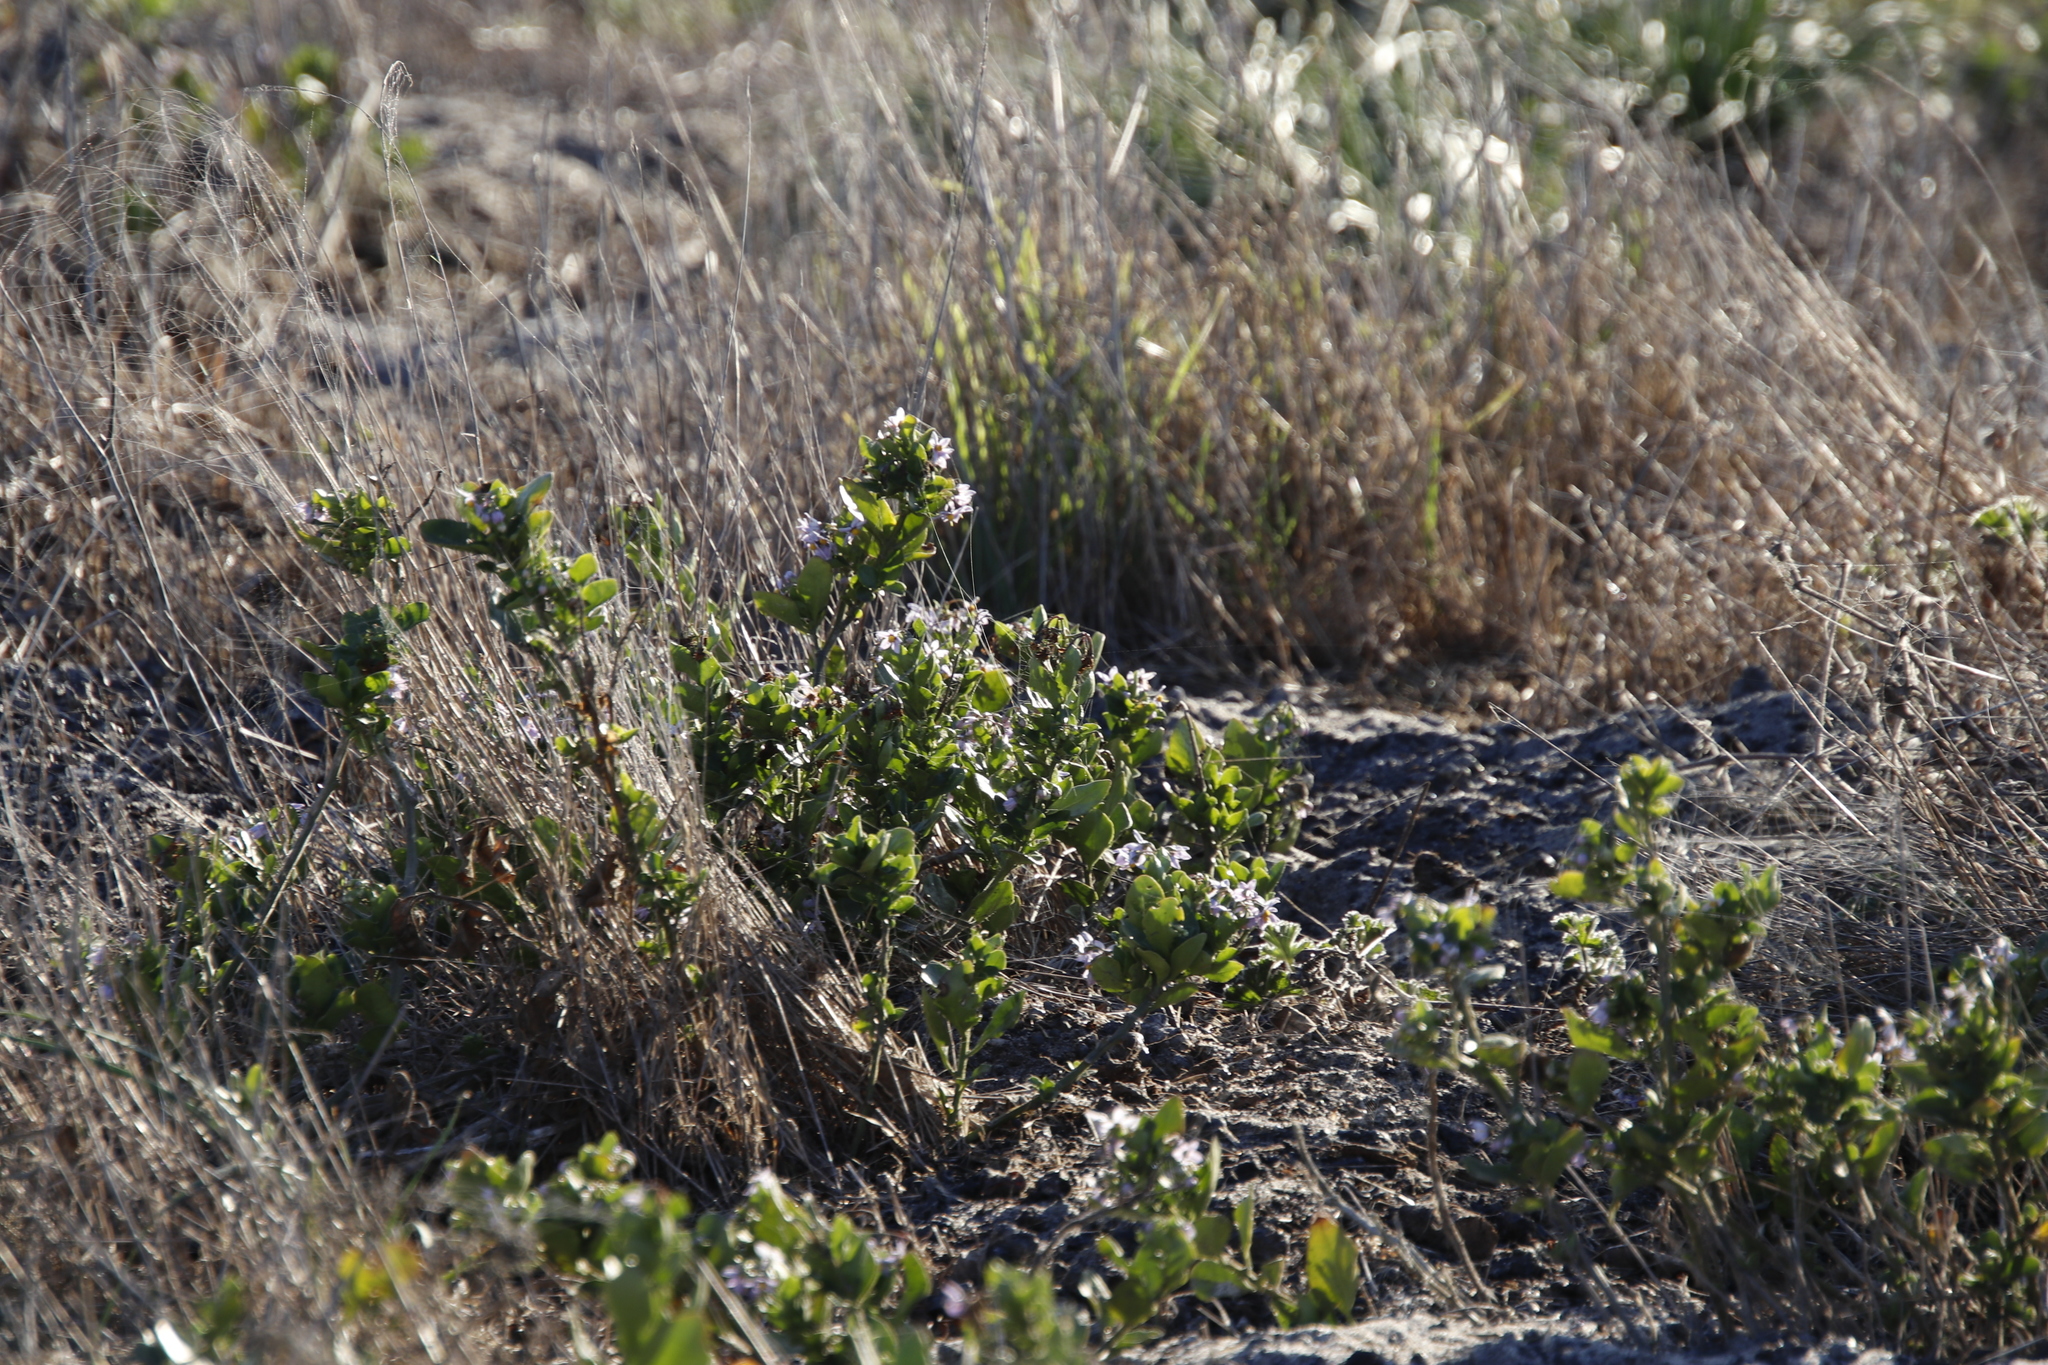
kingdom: Plantae
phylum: Tracheophyta
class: Magnoliopsida
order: Solanales
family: Solanaceae
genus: Solanum
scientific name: Solanum africanum
